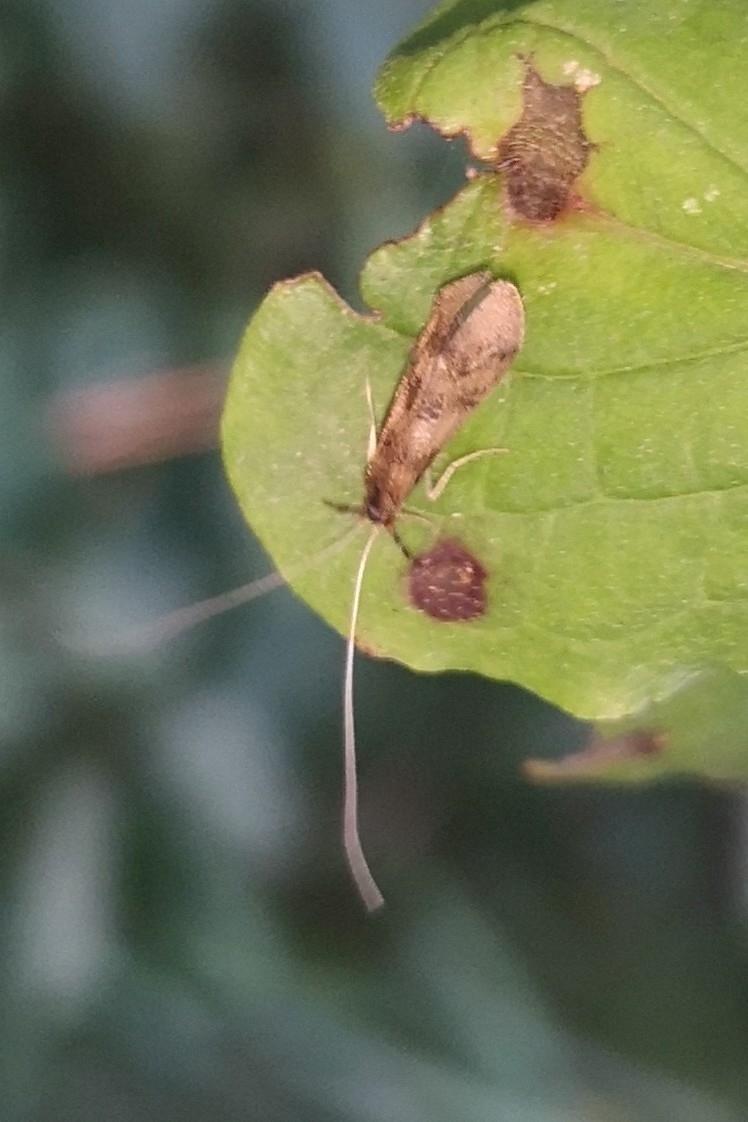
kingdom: Animalia
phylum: Arthropoda
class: Insecta
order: Trichoptera
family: Leptoceridae
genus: Mystacides
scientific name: Mystacides longicornis
